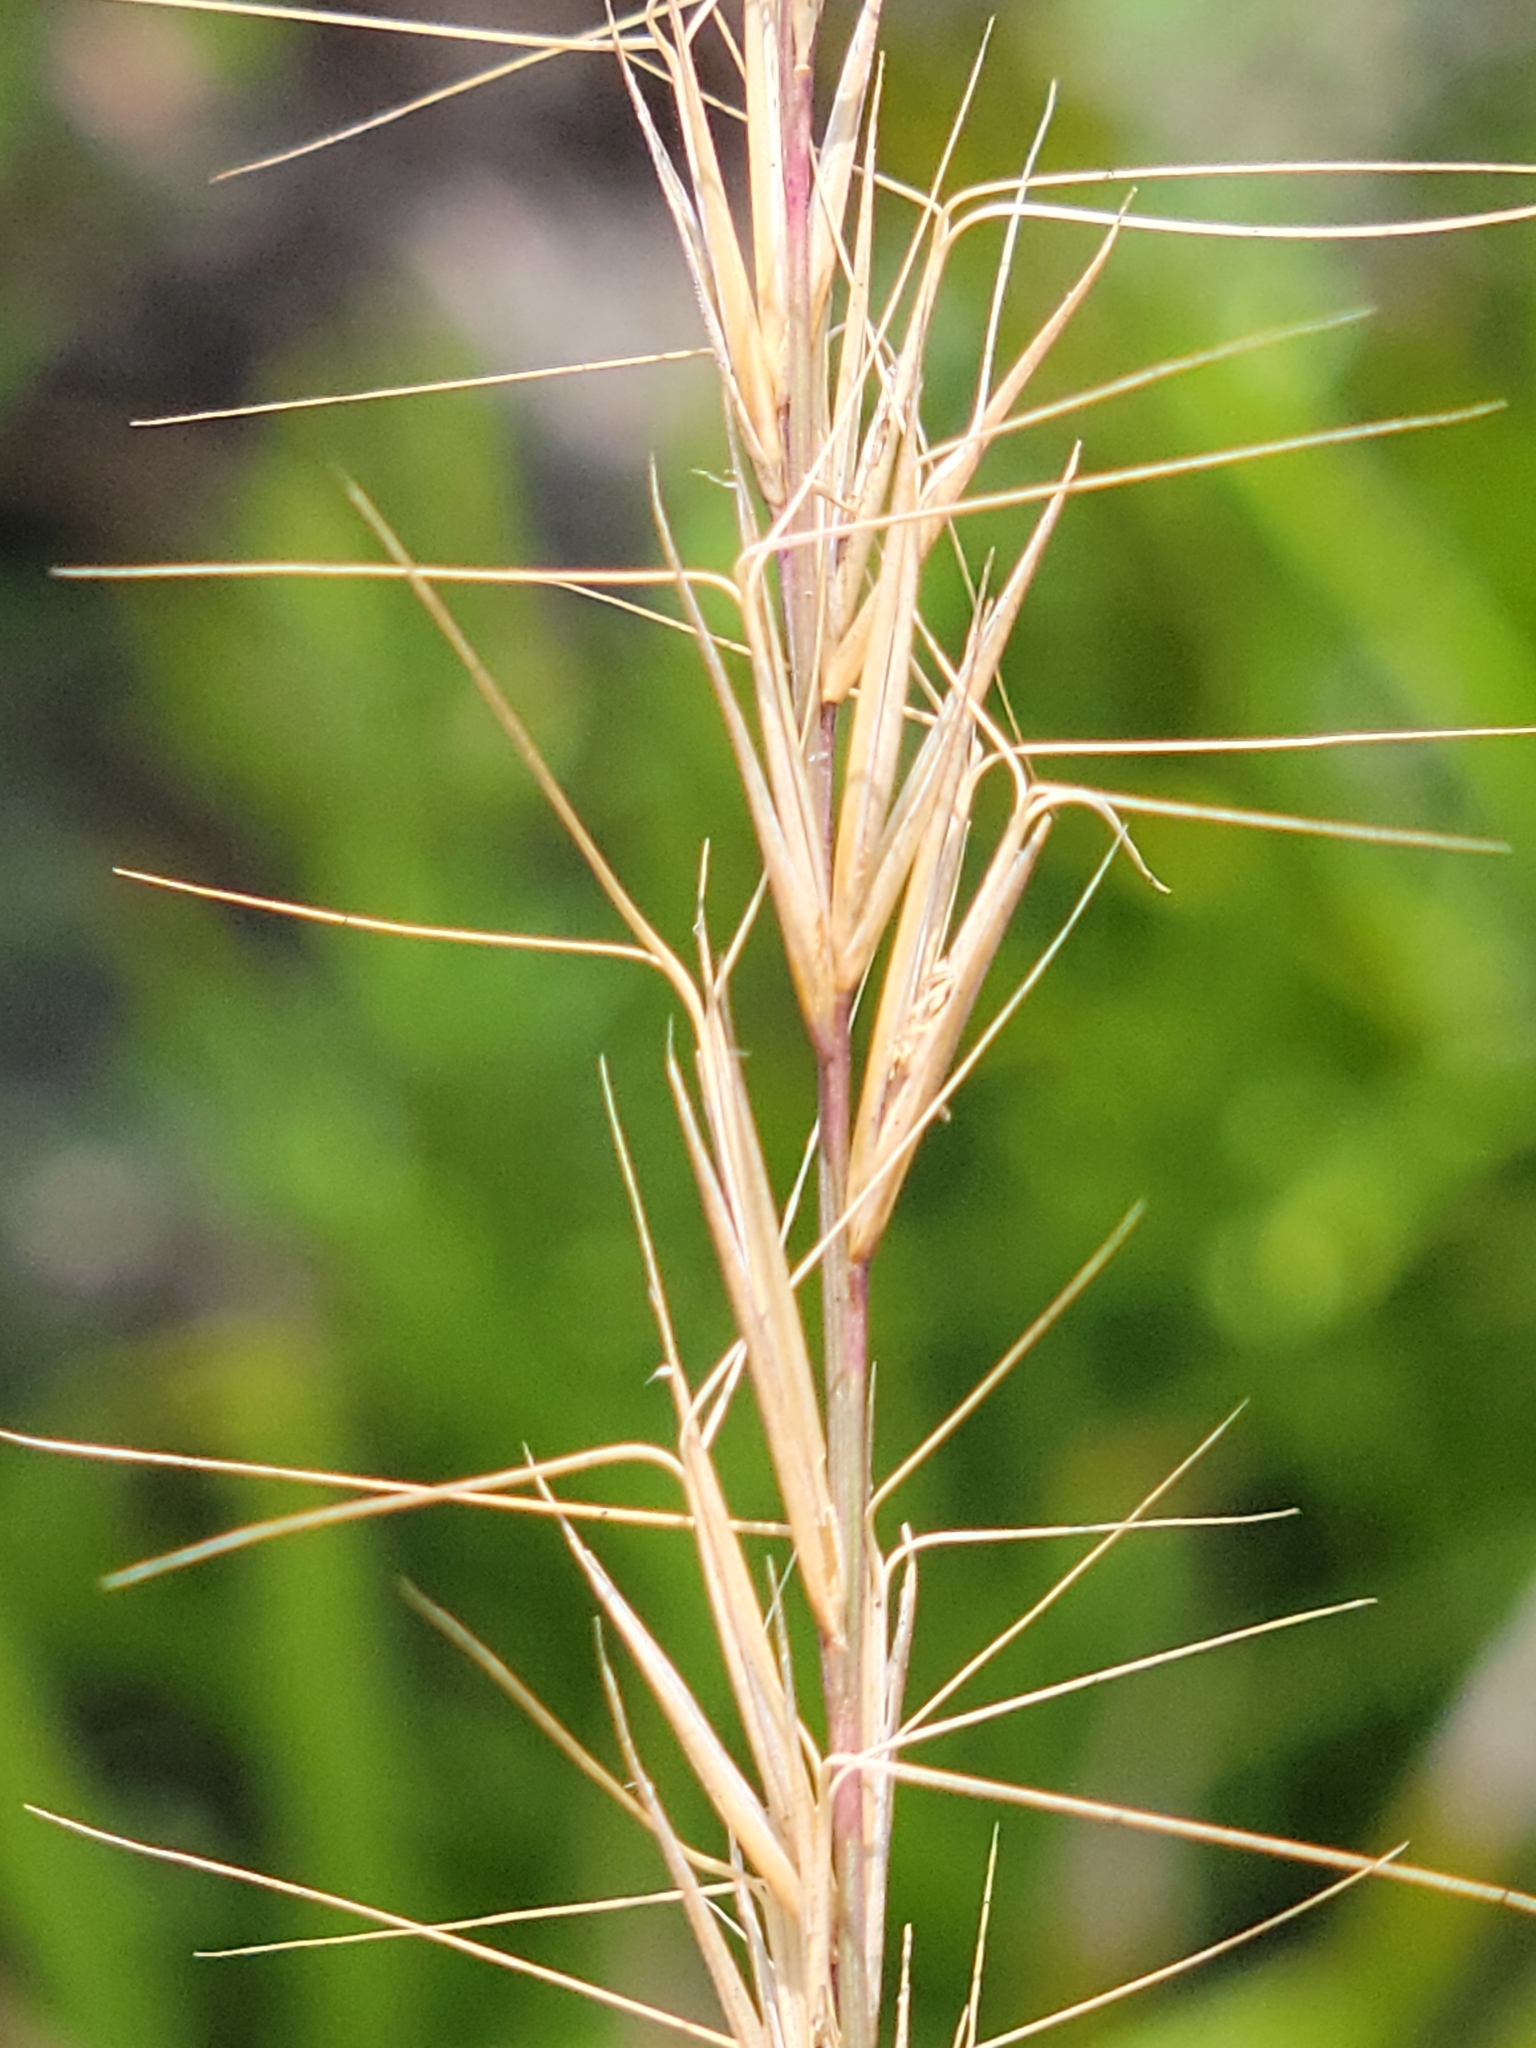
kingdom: Plantae
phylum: Tracheophyta
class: Liliopsida
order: Poales
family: Poaceae
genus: Aristida
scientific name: Aristida beyrichiana
